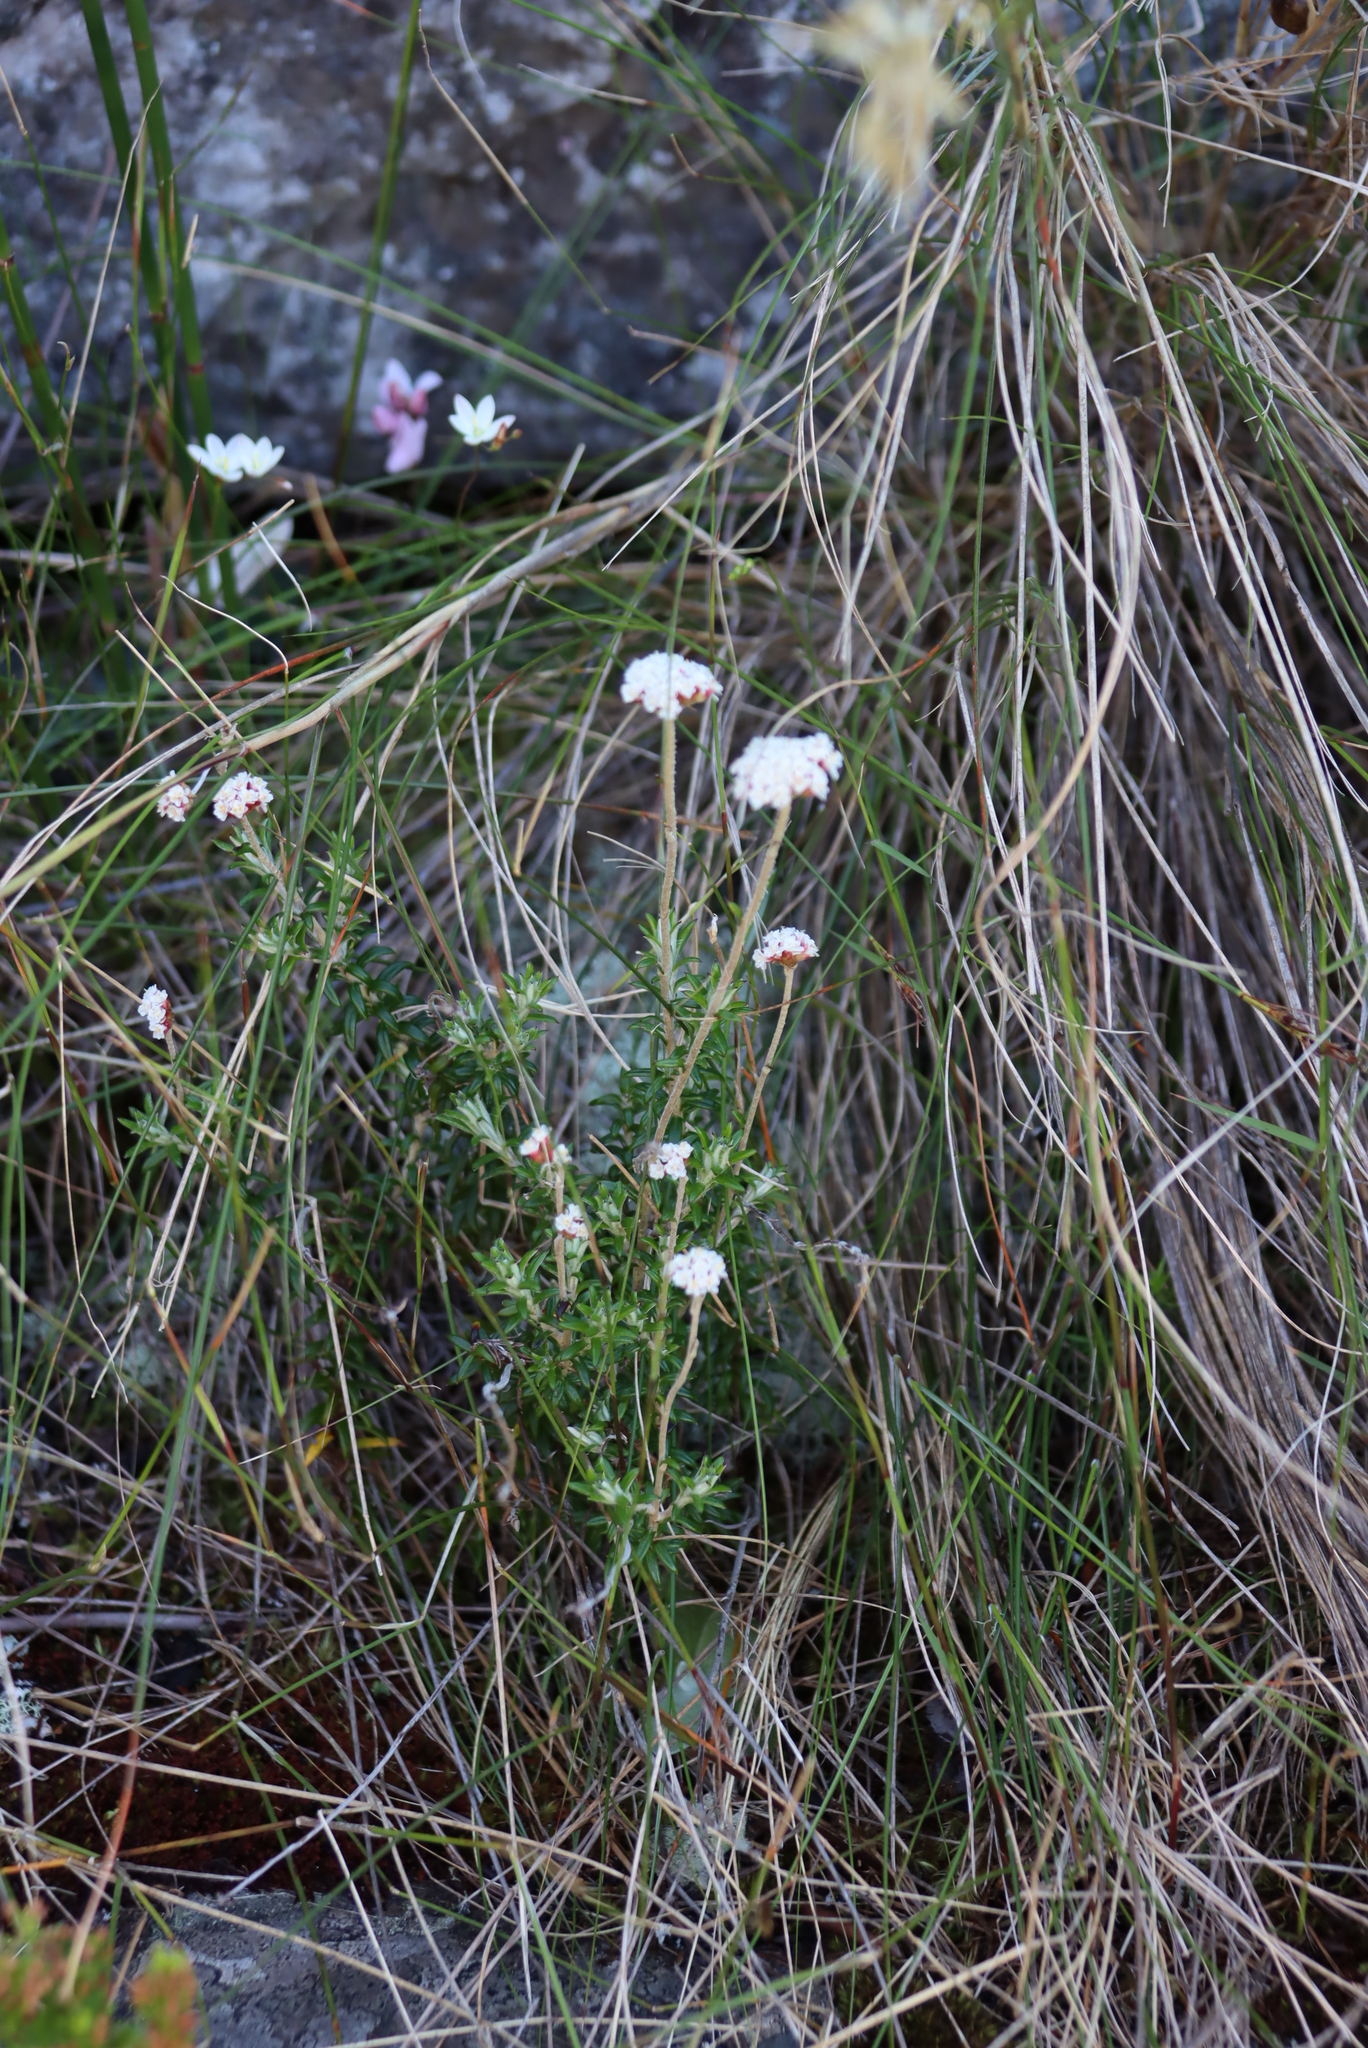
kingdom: Plantae
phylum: Tracheophyta
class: Magnoliopsida
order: Asterales
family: Asteraceae
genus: Anaxeton
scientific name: Anaxeton arborescens
